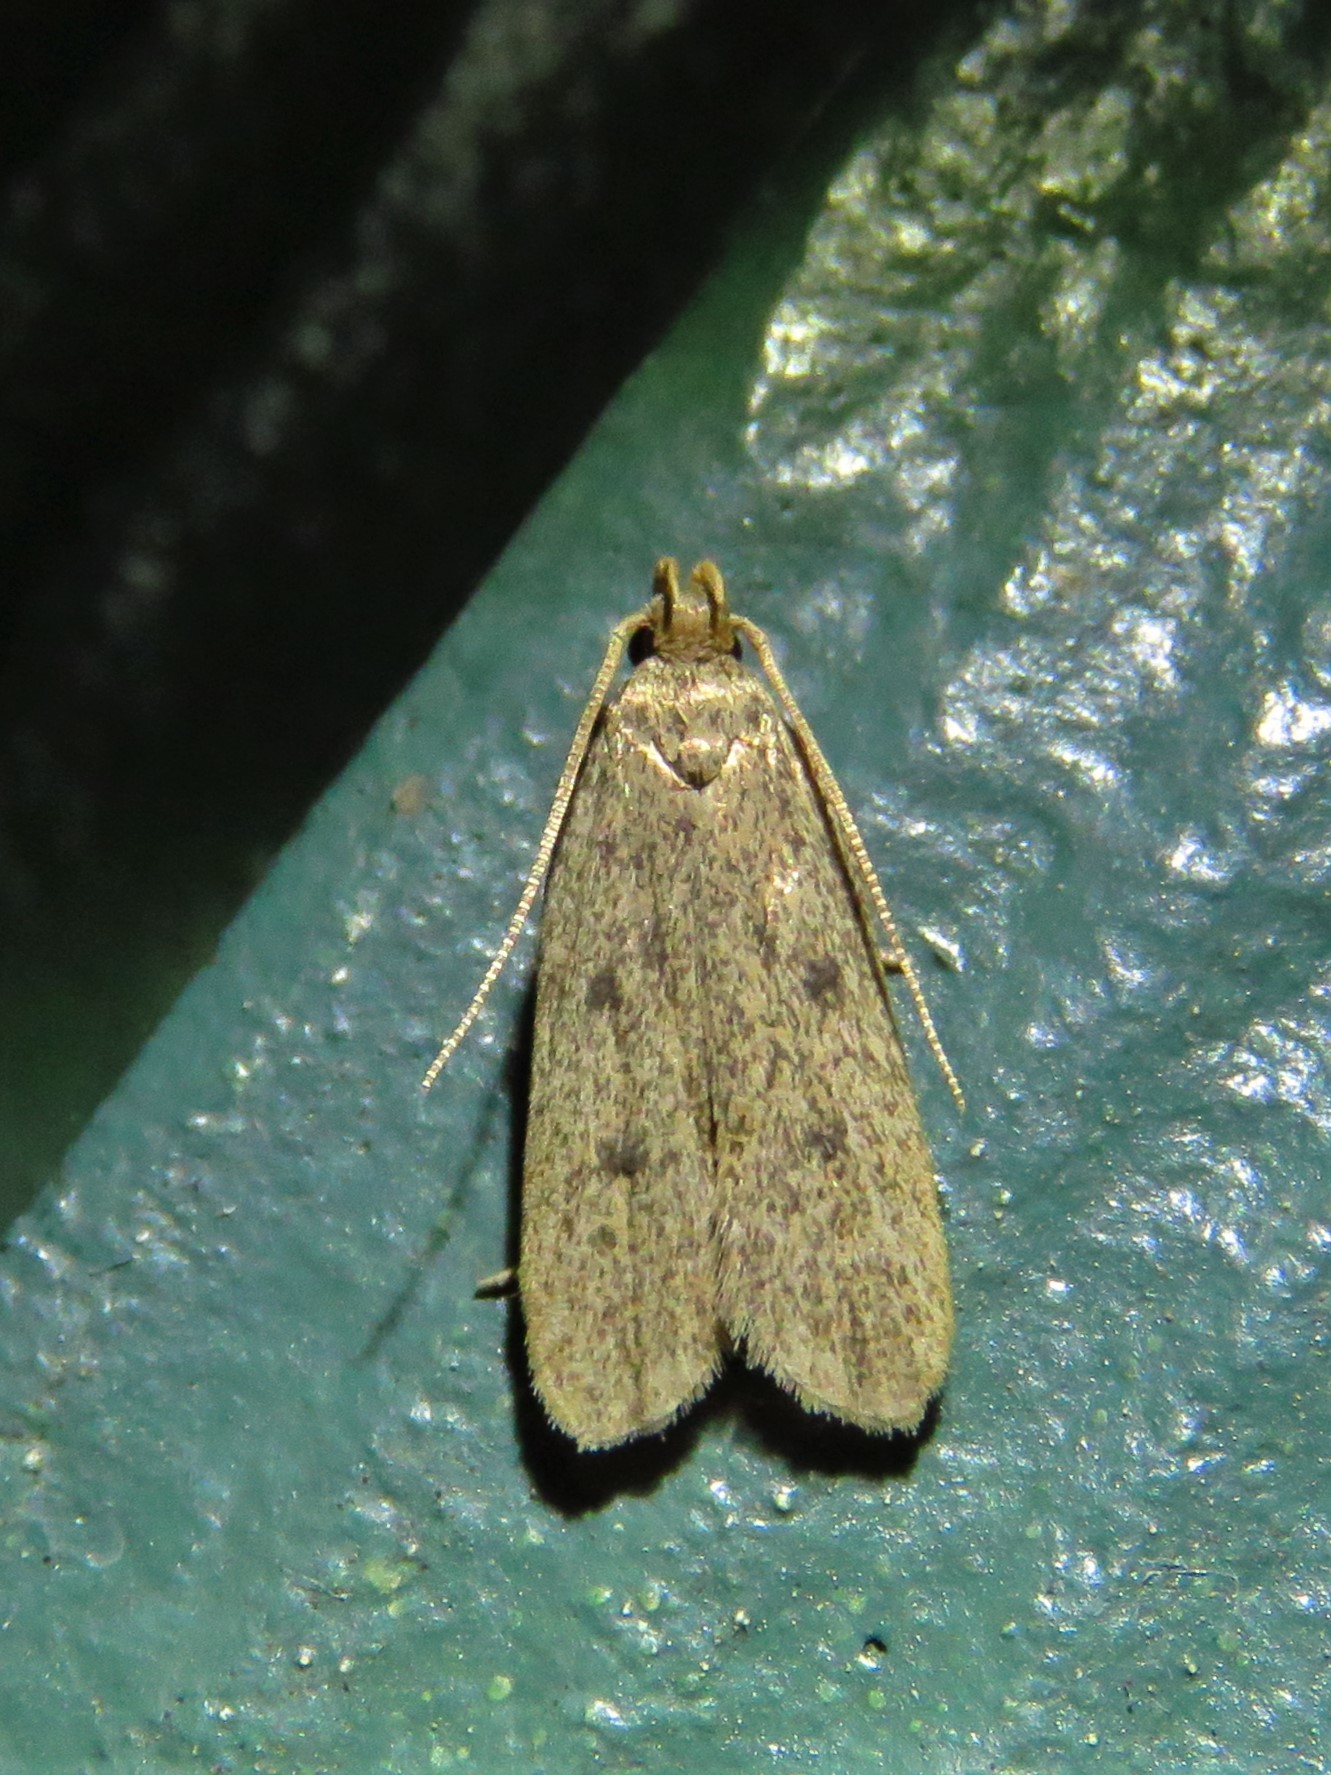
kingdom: Animalia
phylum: Arthropoda
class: Insecta
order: Lepidoptera
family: Autostichidae
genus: Glyphidocera
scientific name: Glyphidocera juniperella
